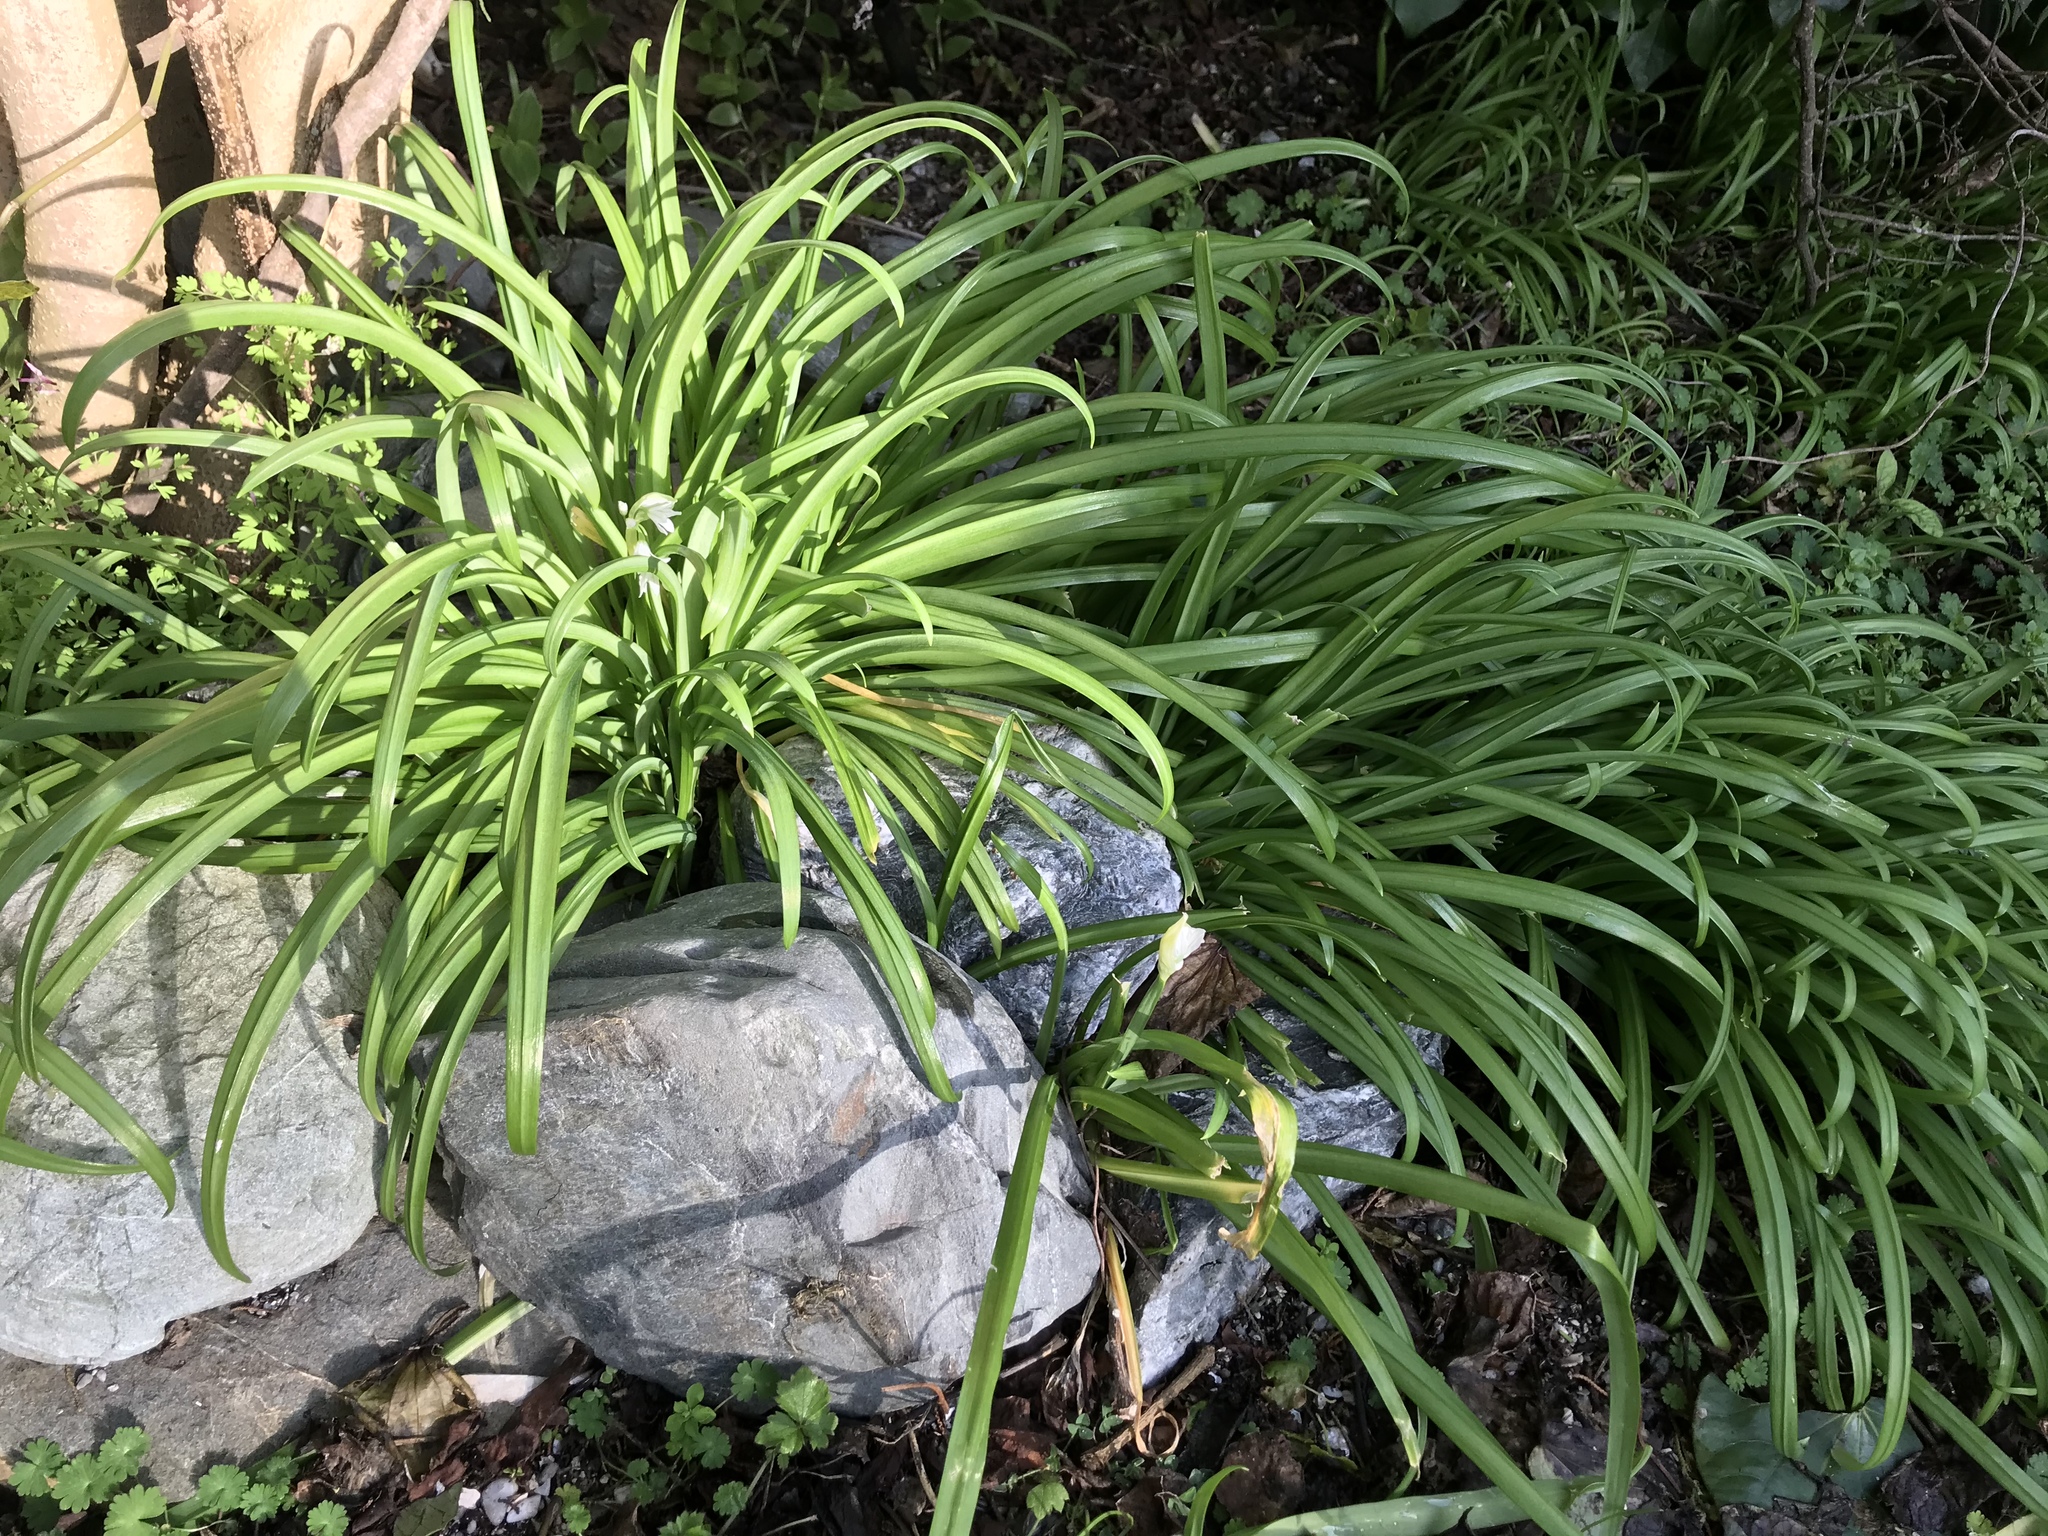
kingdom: Plantae
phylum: Tracheophyta
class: Liliopsida
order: Asparagales
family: Amaryllidaceae
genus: Allium
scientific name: Allium triquetrum
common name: Three-cornered garlic
